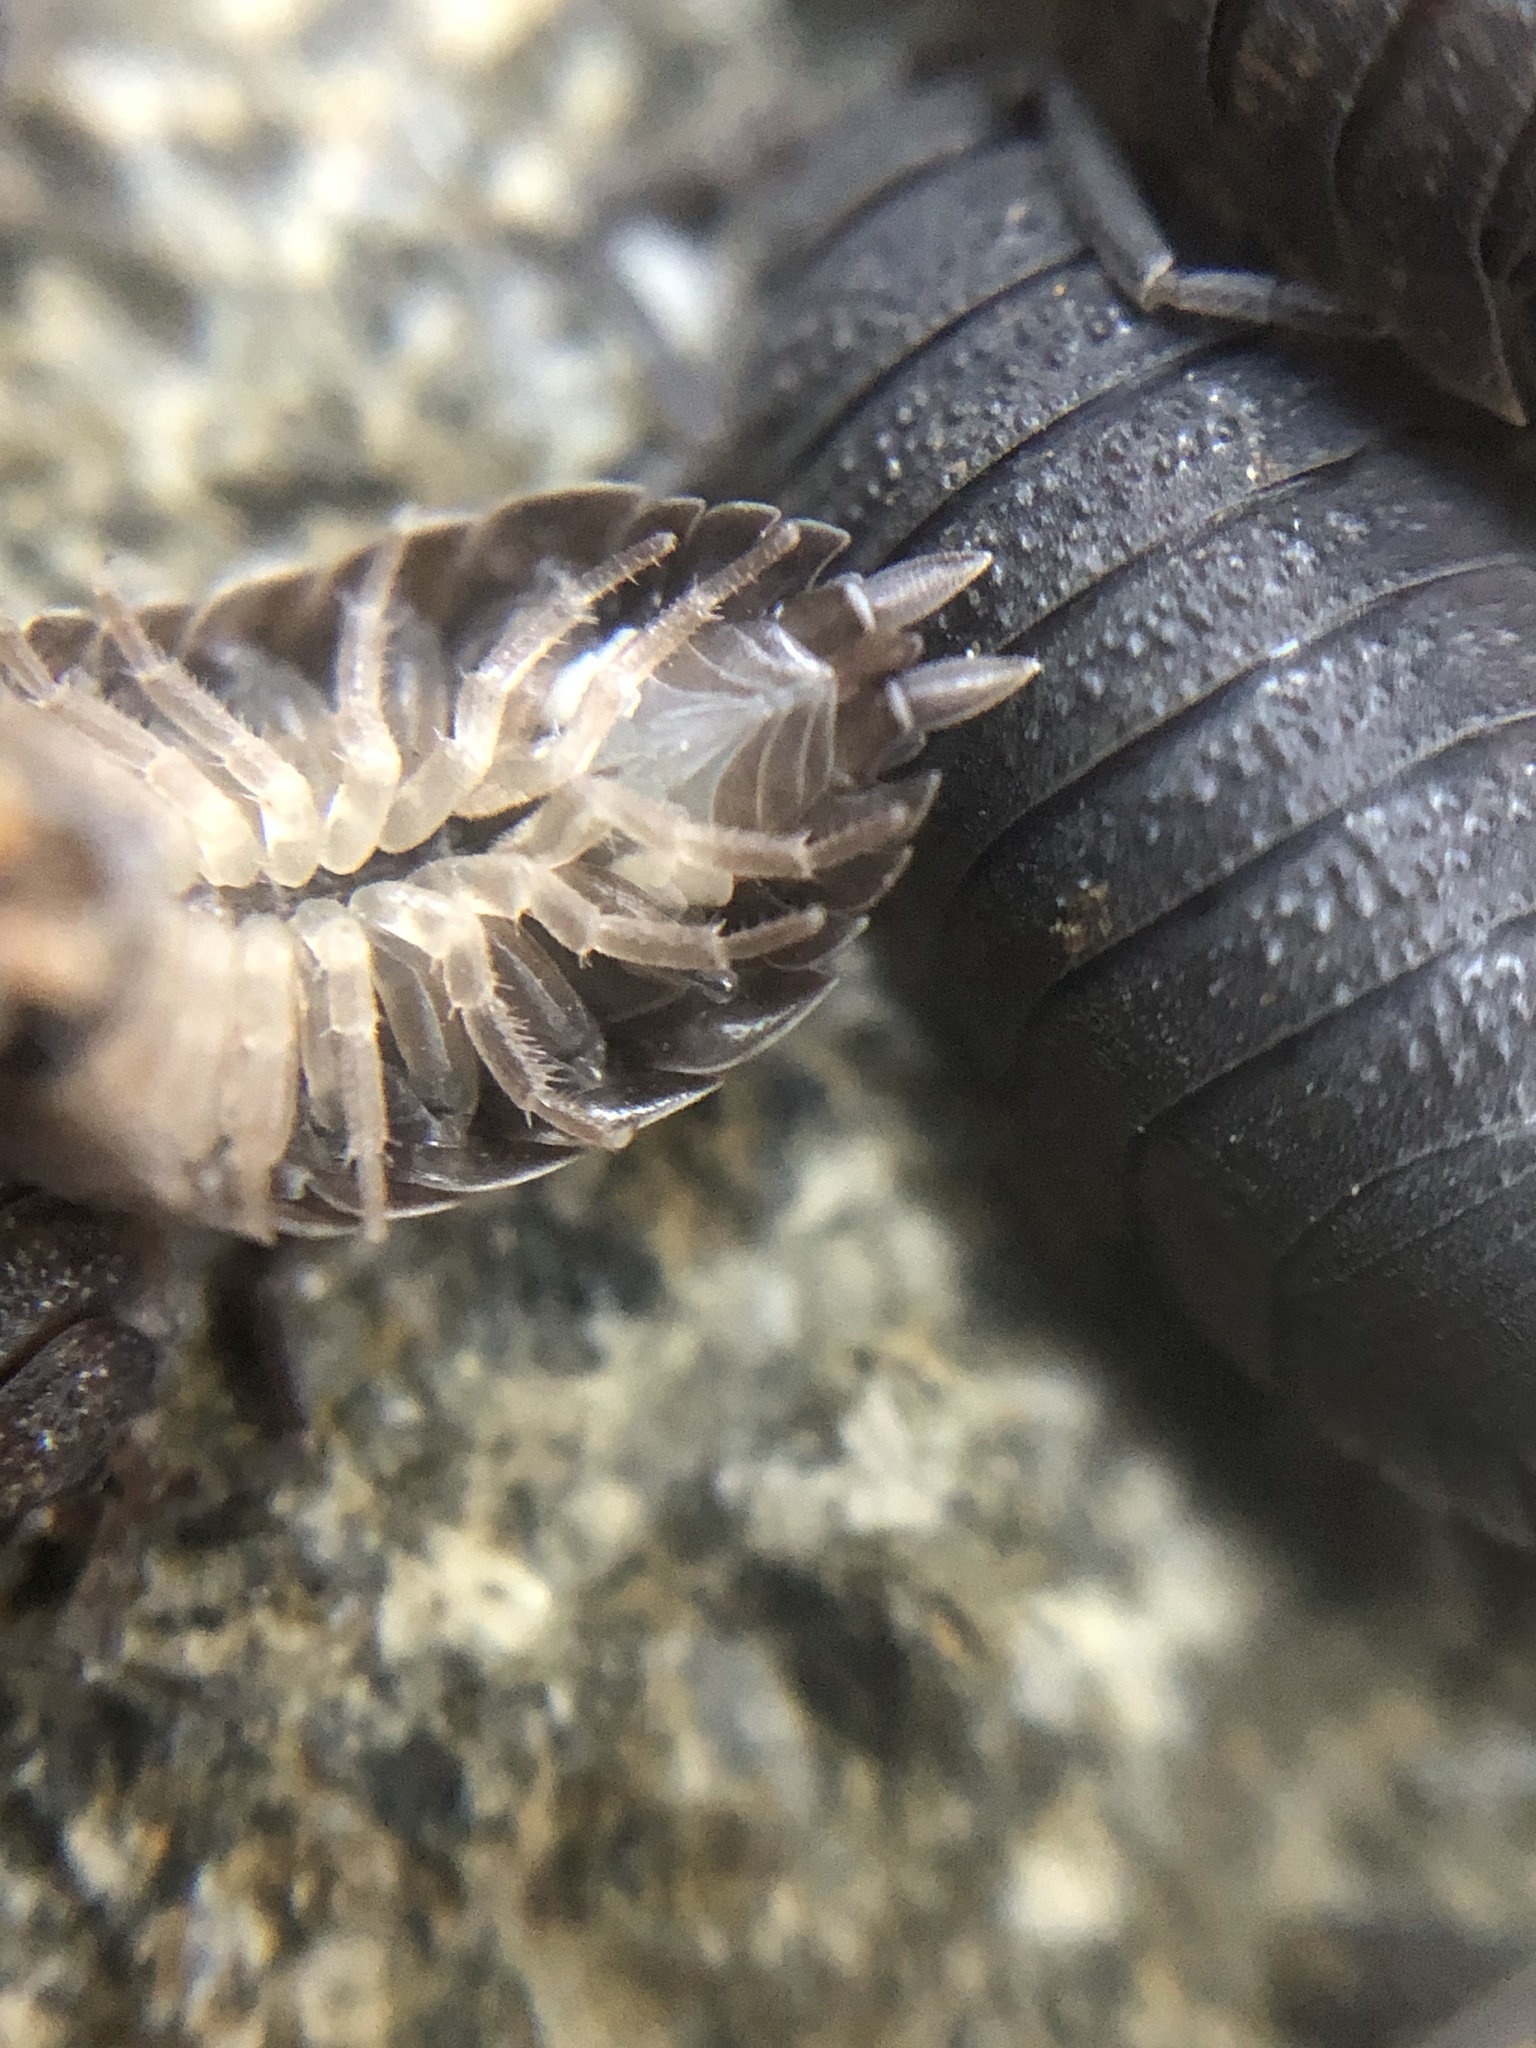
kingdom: Animalia
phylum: Arthropoda
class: Malacostraca
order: Isopoda
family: Porcellionidae
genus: Porcellio
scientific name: Porcellio scaber
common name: Common rough woodlouse
